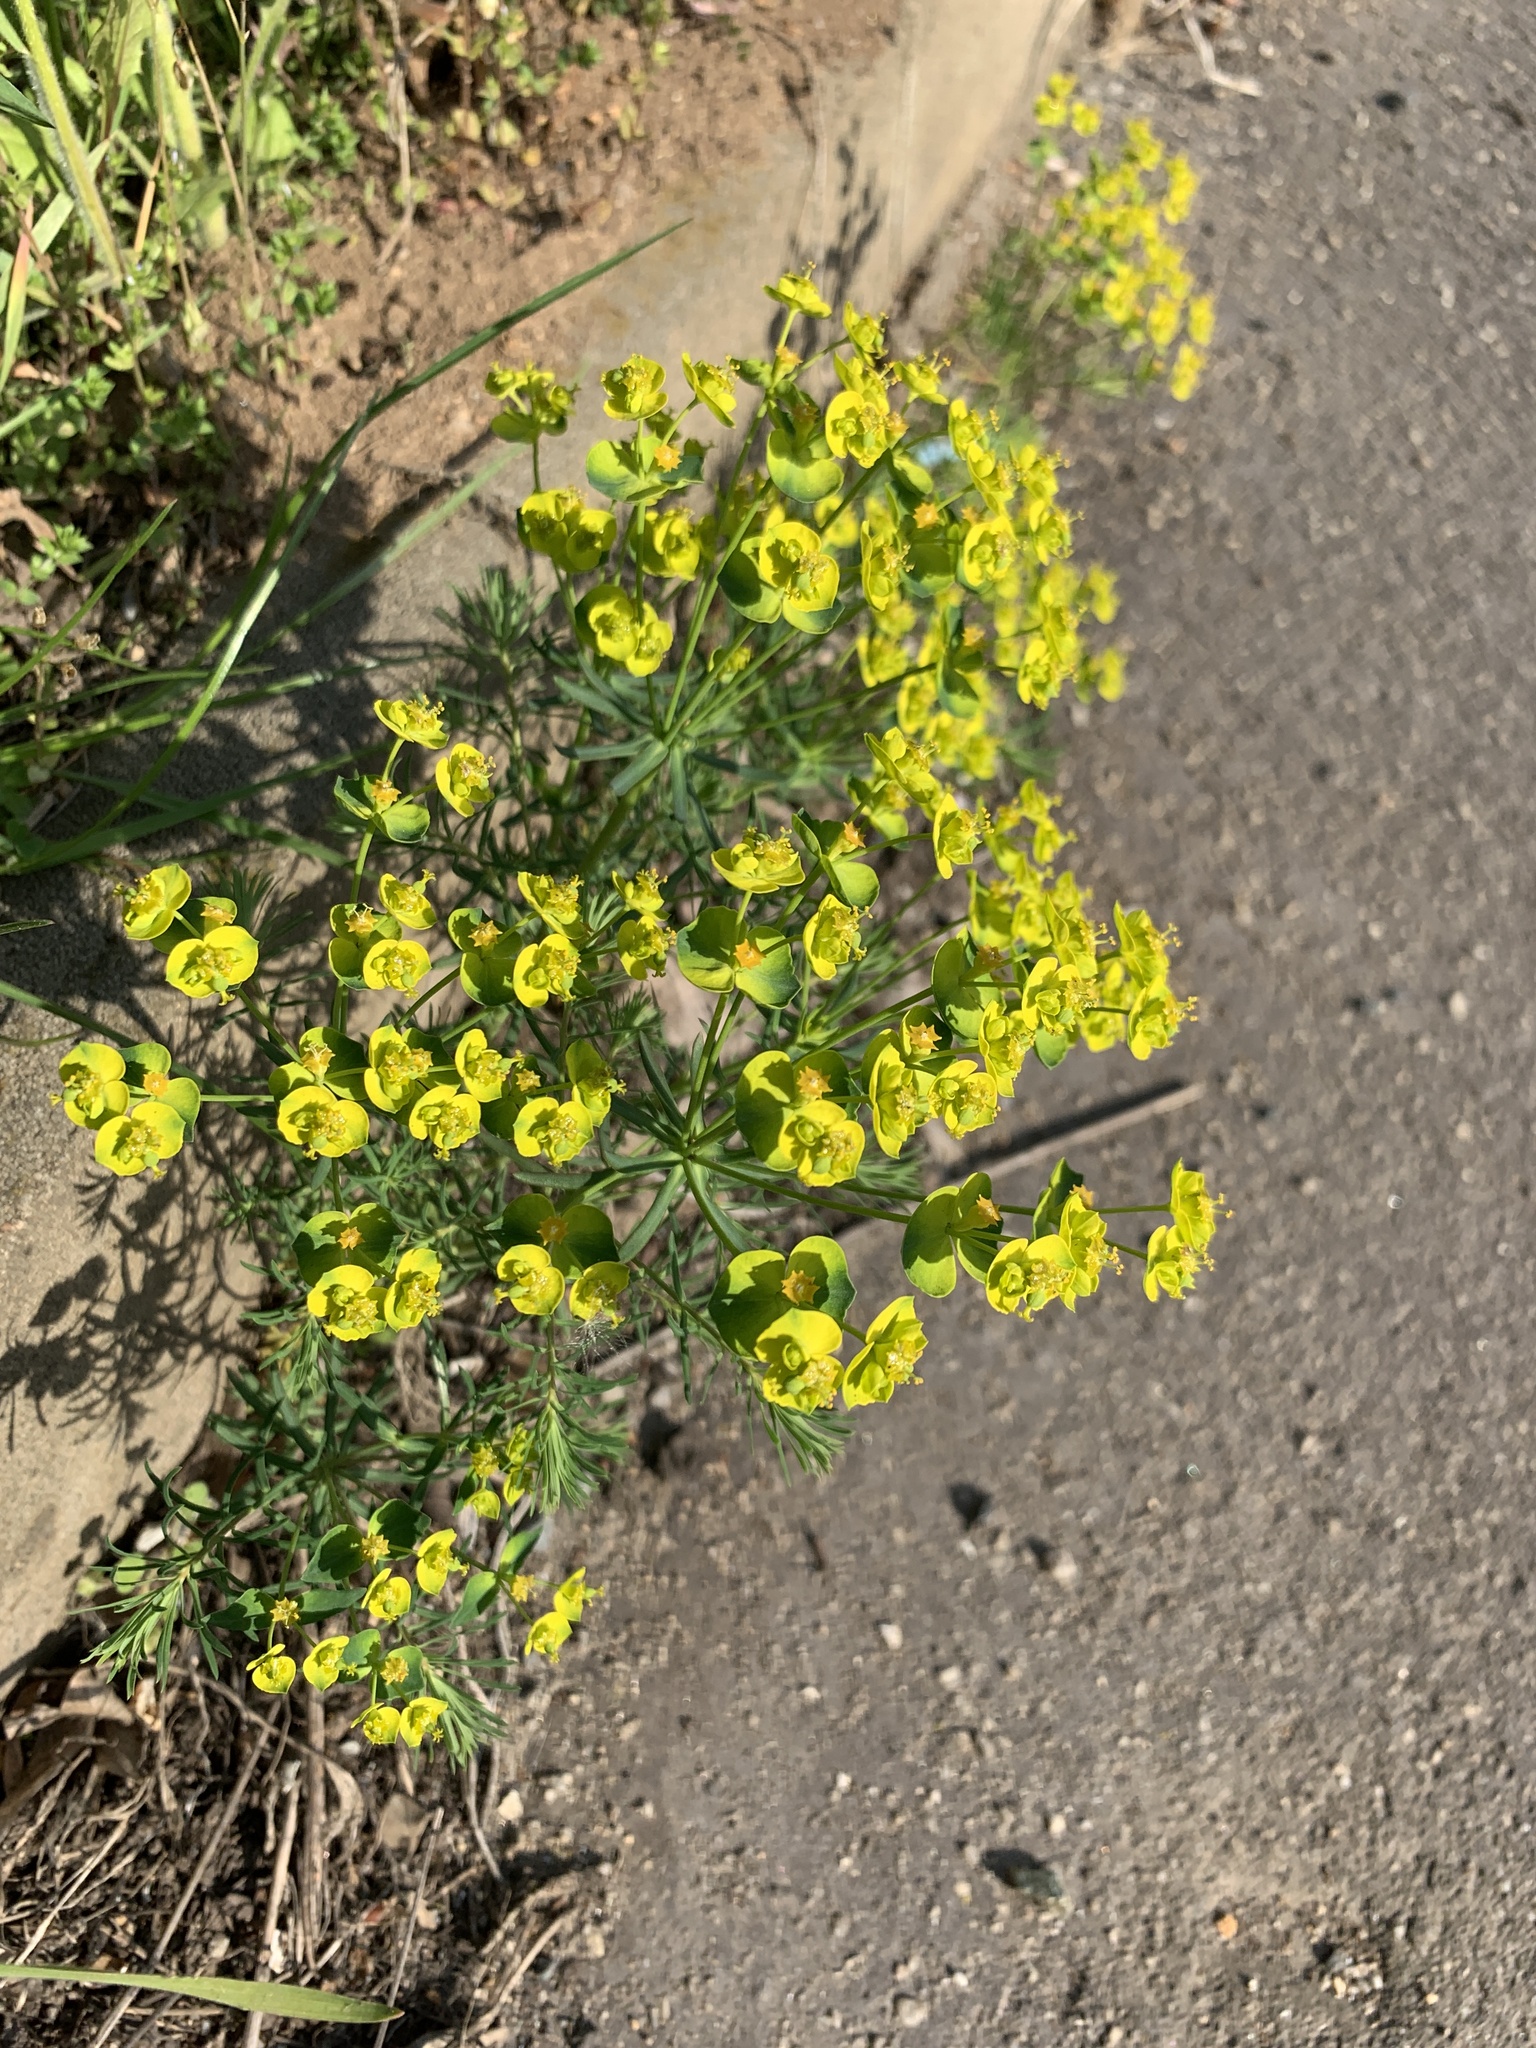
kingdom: Plantae
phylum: Tracheophyta
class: Magnoliopsida
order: Malpighiales
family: Euphorbiaceae
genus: Euphorbia
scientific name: Euphorbia cyparissias
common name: Cypress spurge
